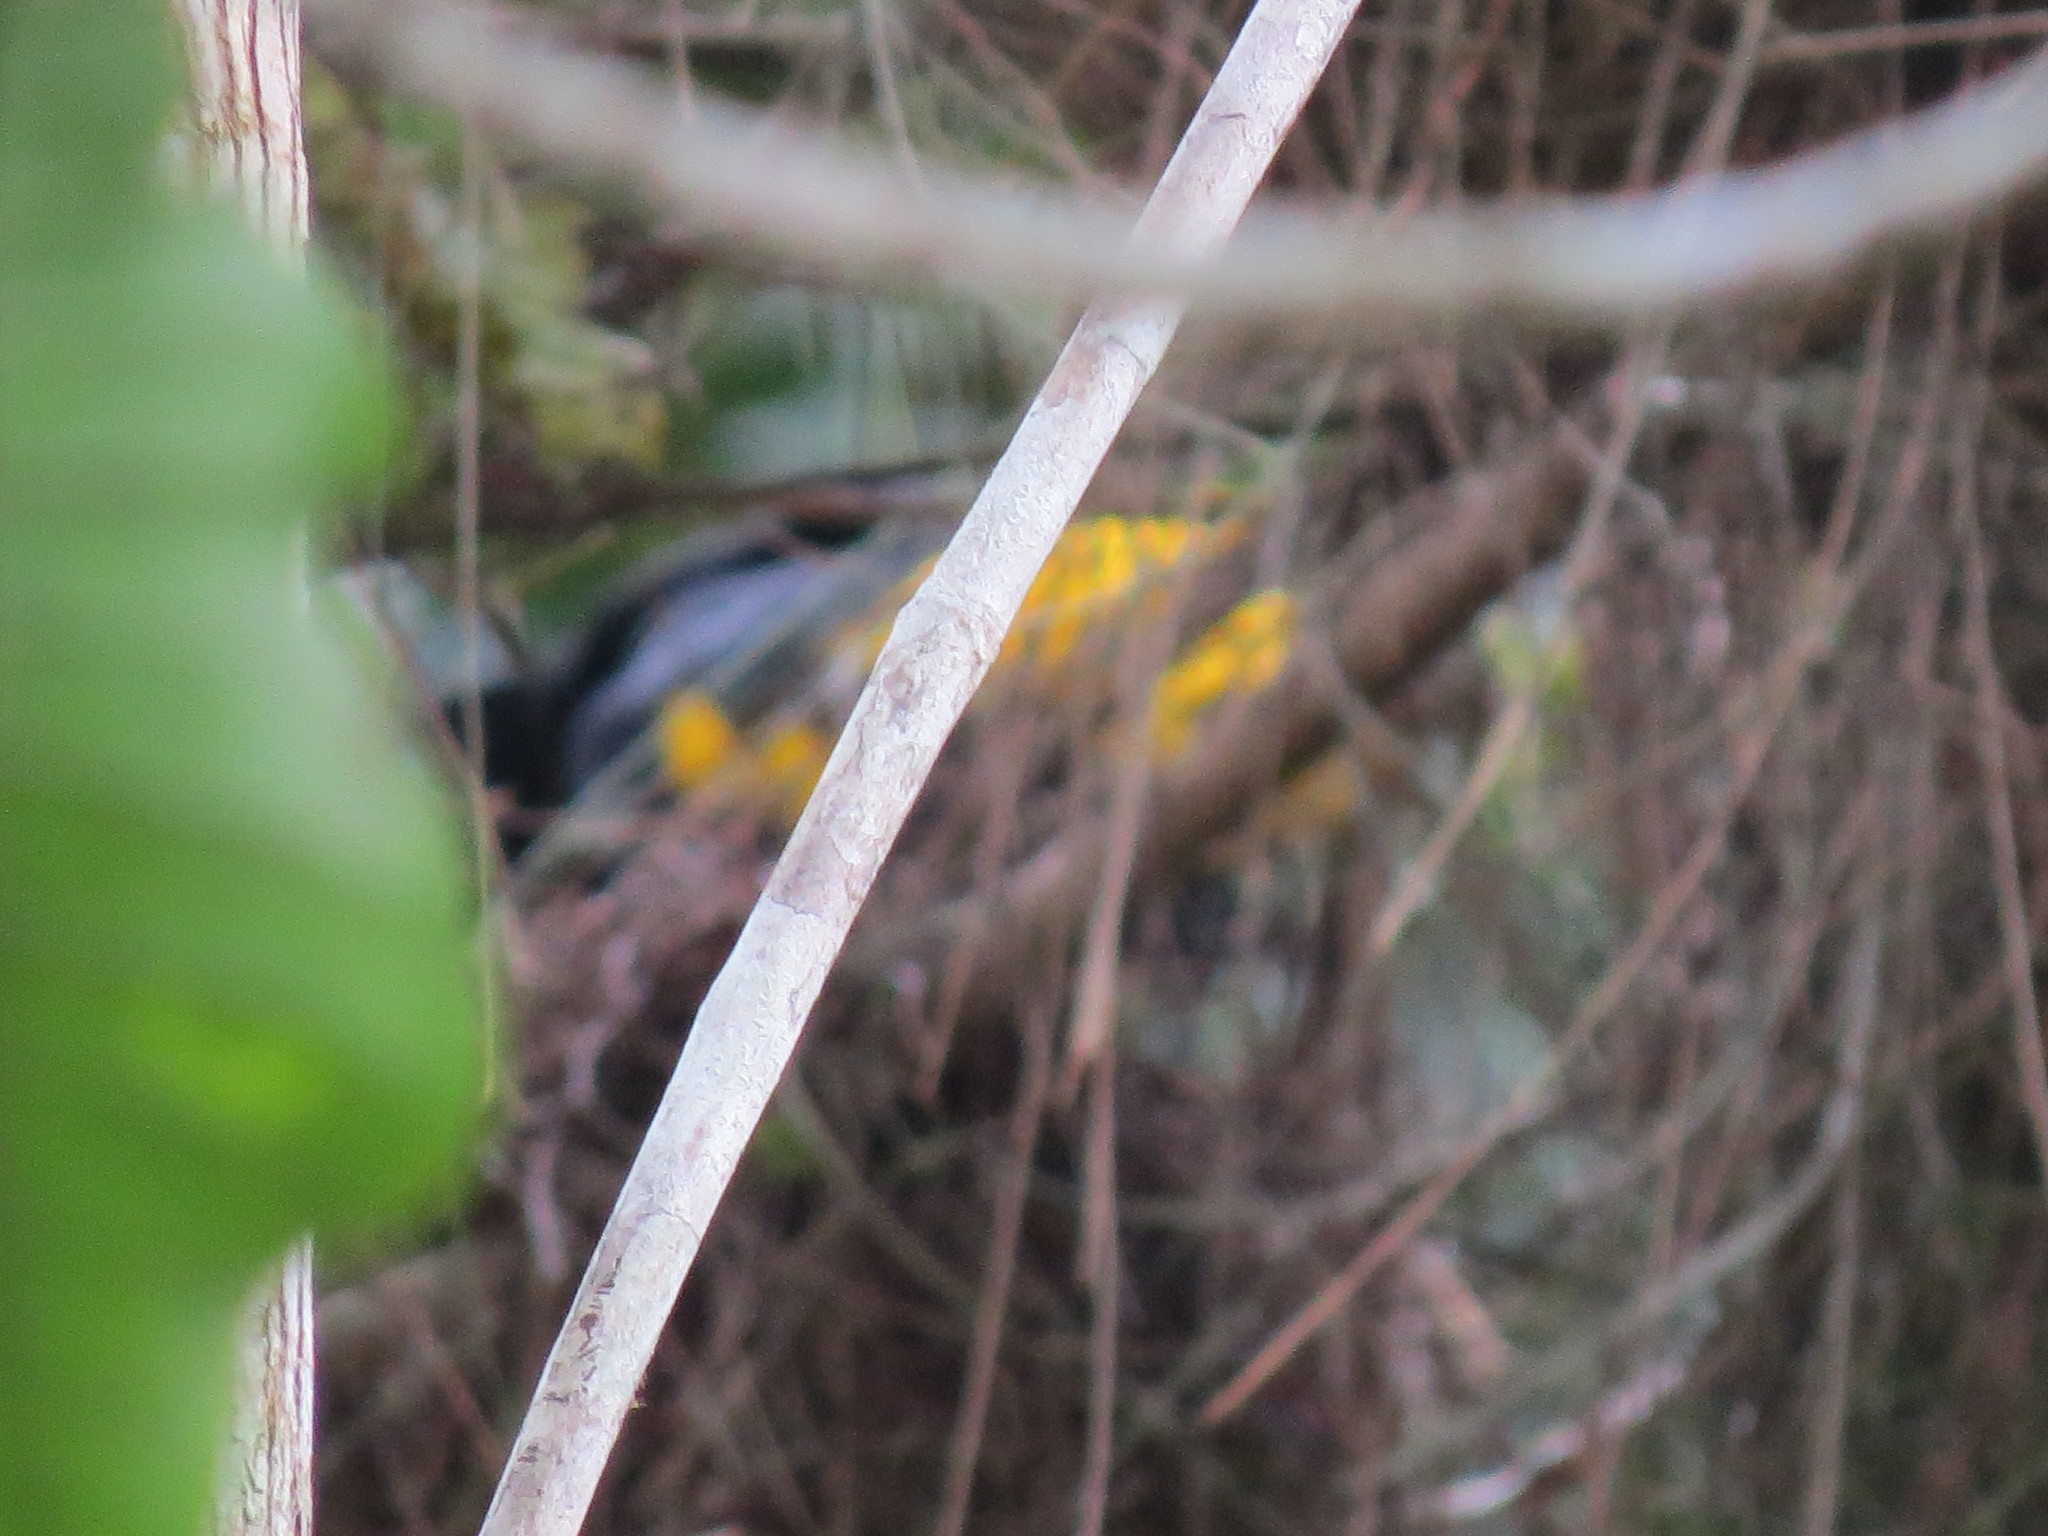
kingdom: Animalia
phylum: Chordata
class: Aves
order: Passeriformes
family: Icteridae
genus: Cacicus
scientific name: Cacicus cela
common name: Yellow-rumped cacique
